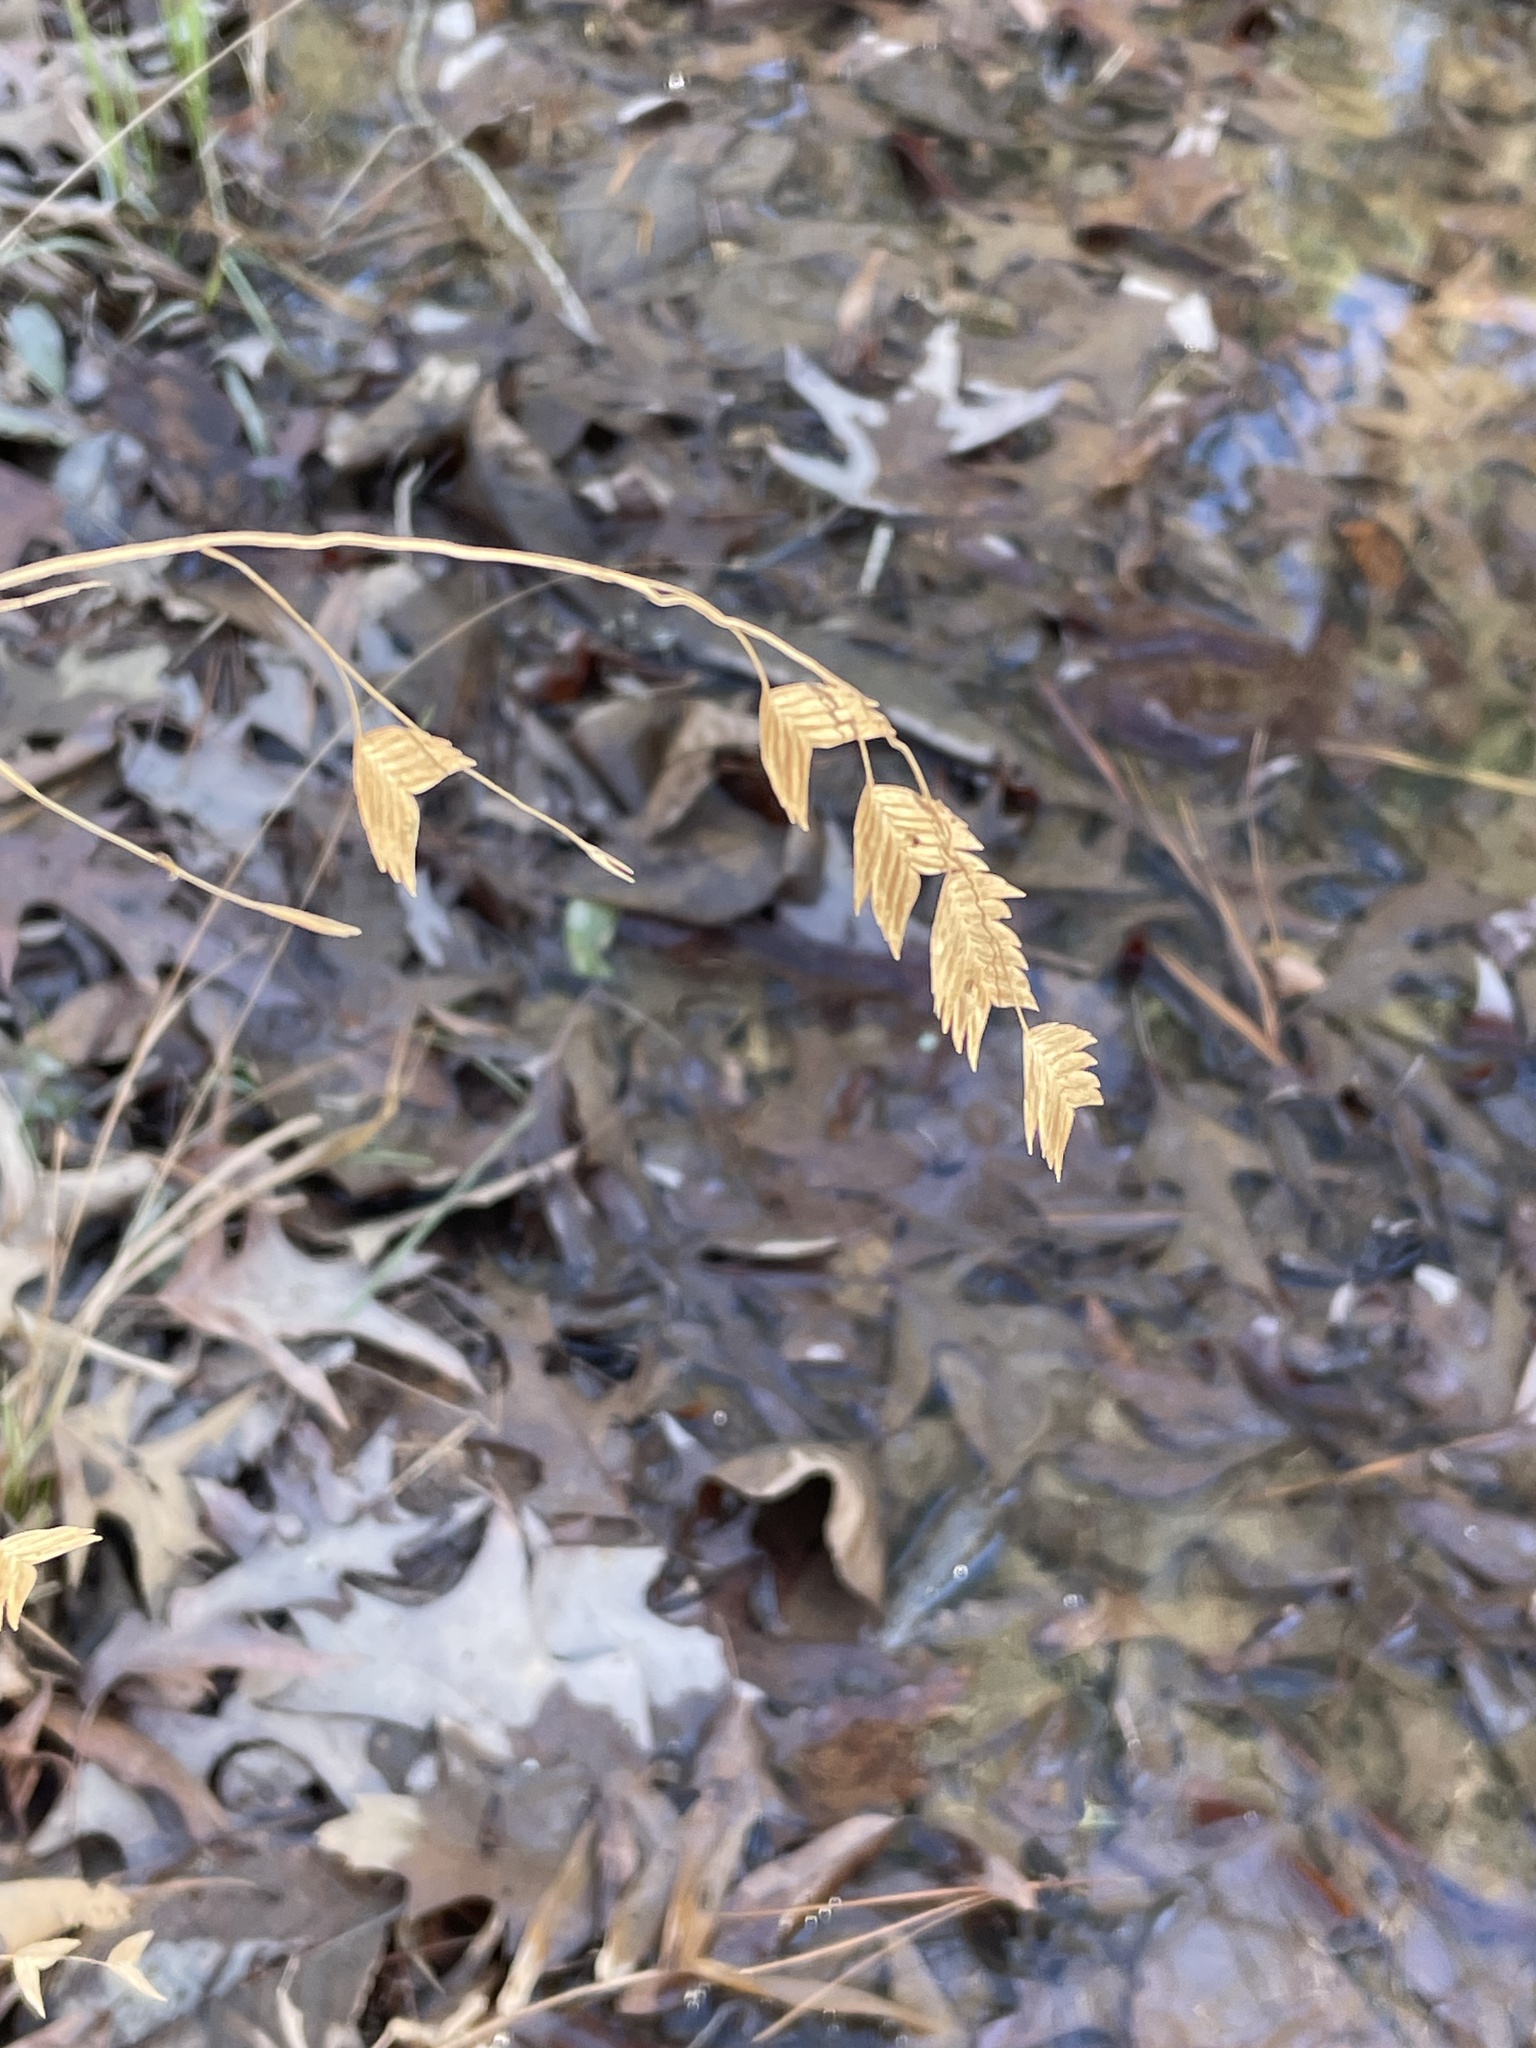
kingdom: Plantae
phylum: Tracheophyta
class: Liliopsida
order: Poales
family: Poaceae
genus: Chasmanthium
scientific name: Chasmanthium latifolium
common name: Broad-leaved chasmanthium
